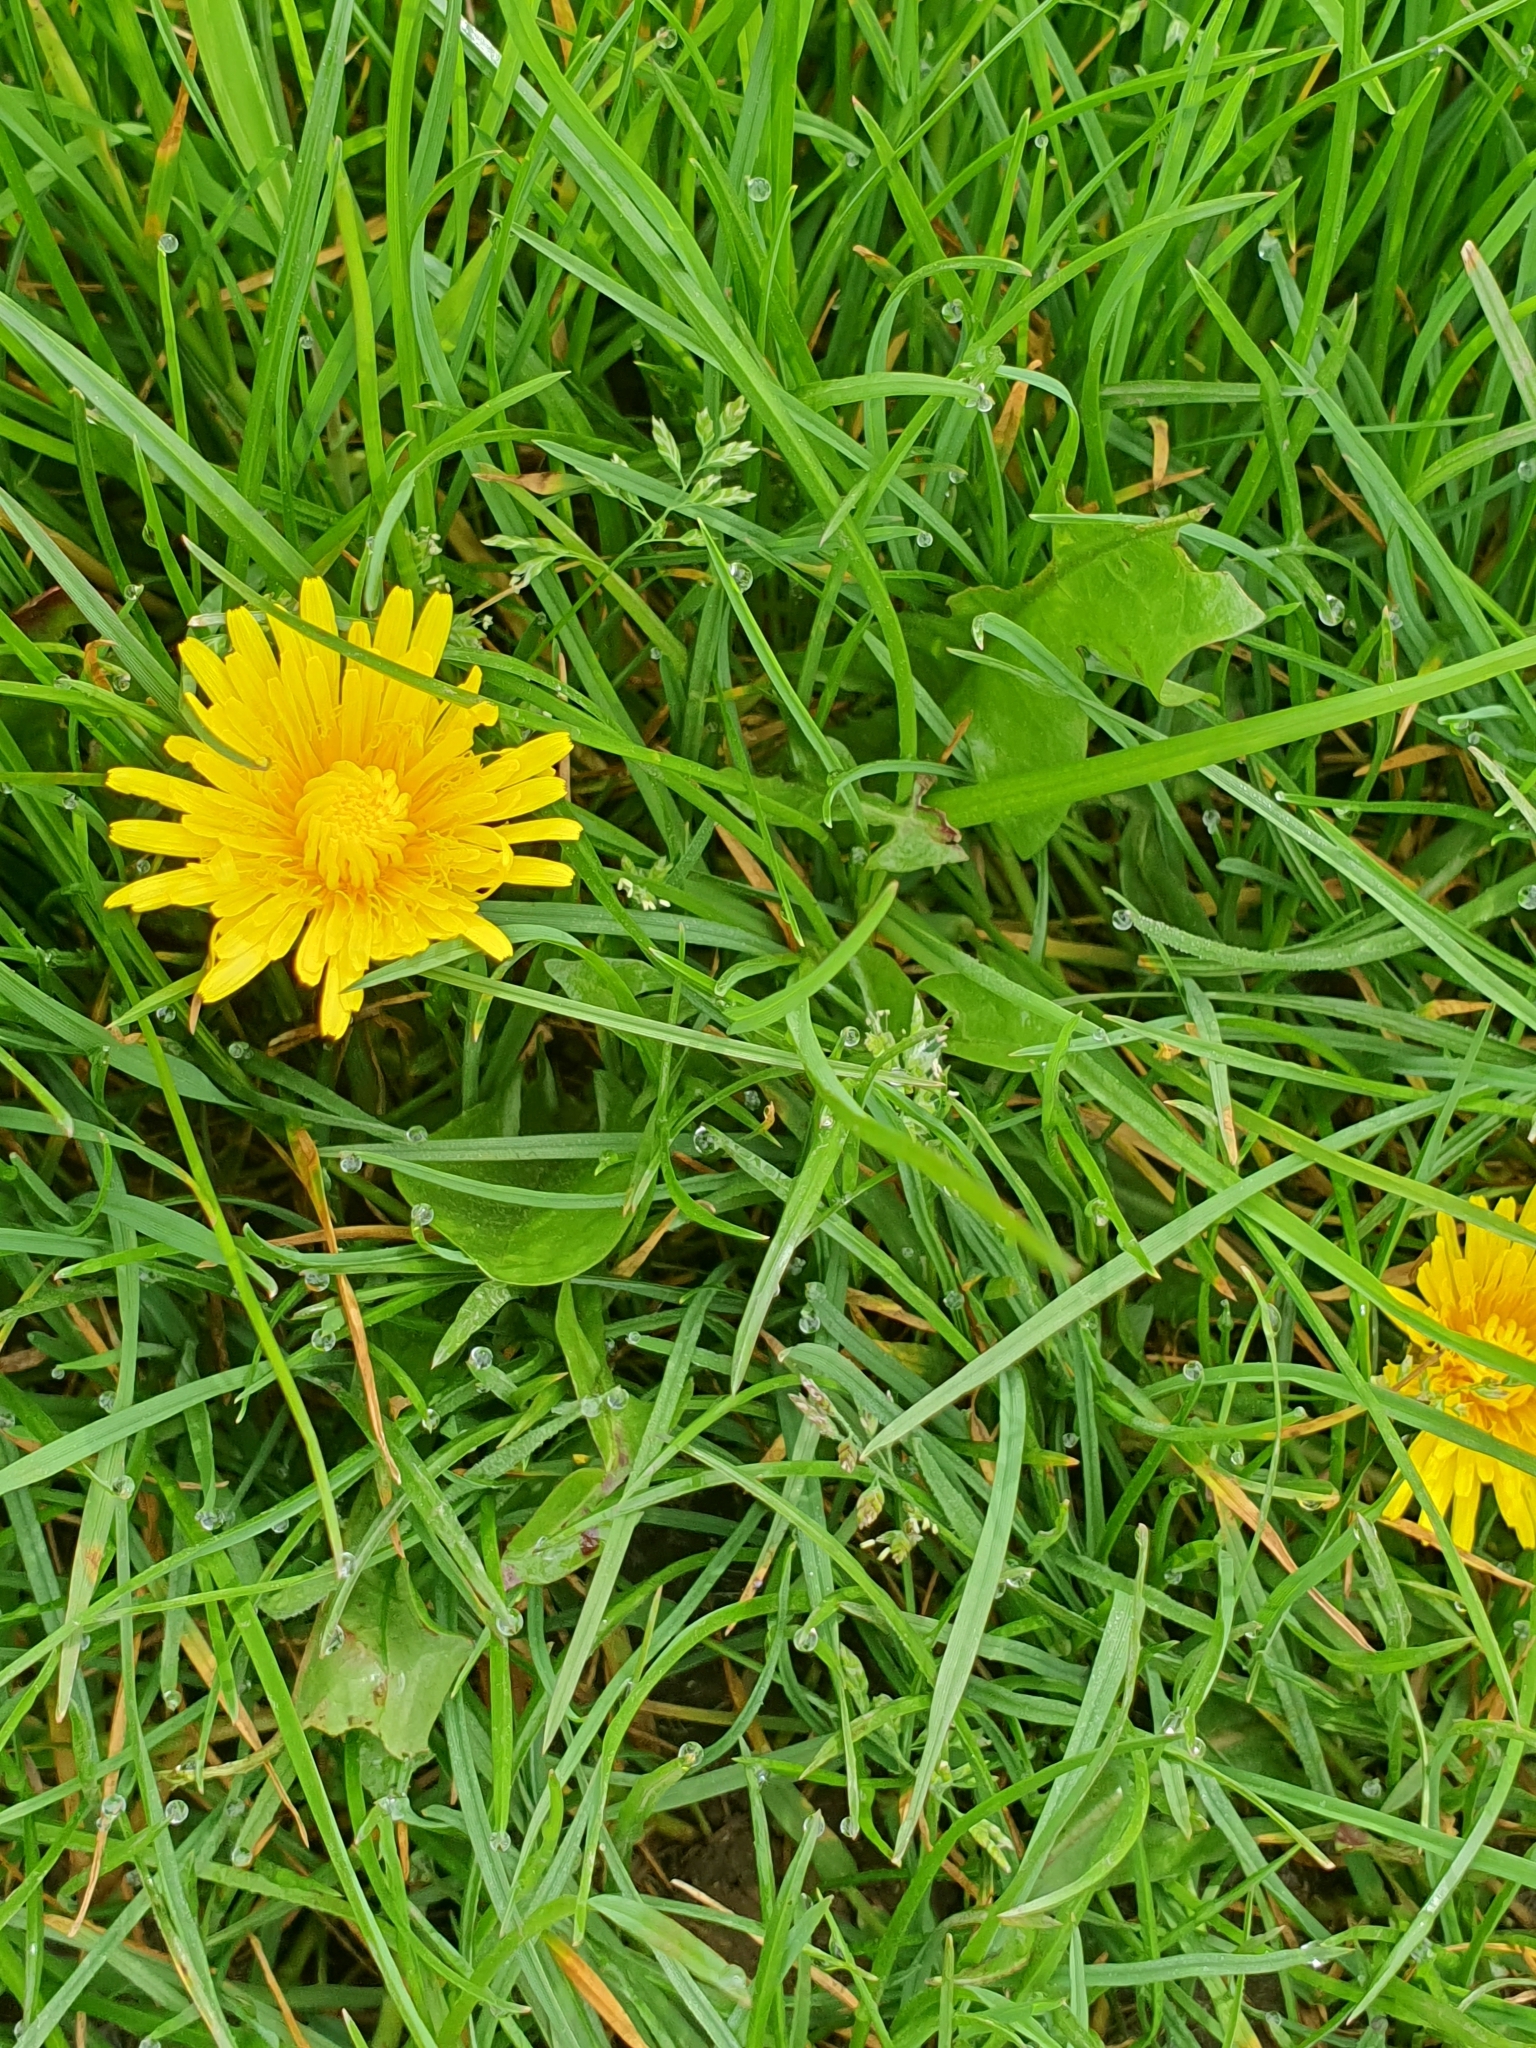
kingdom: Plantae
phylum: Tracheophyta
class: Magnoliopsida
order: Asterales
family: Asteraceae
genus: Taraxacum
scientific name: Taraxacum officinale
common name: Common dandelion
